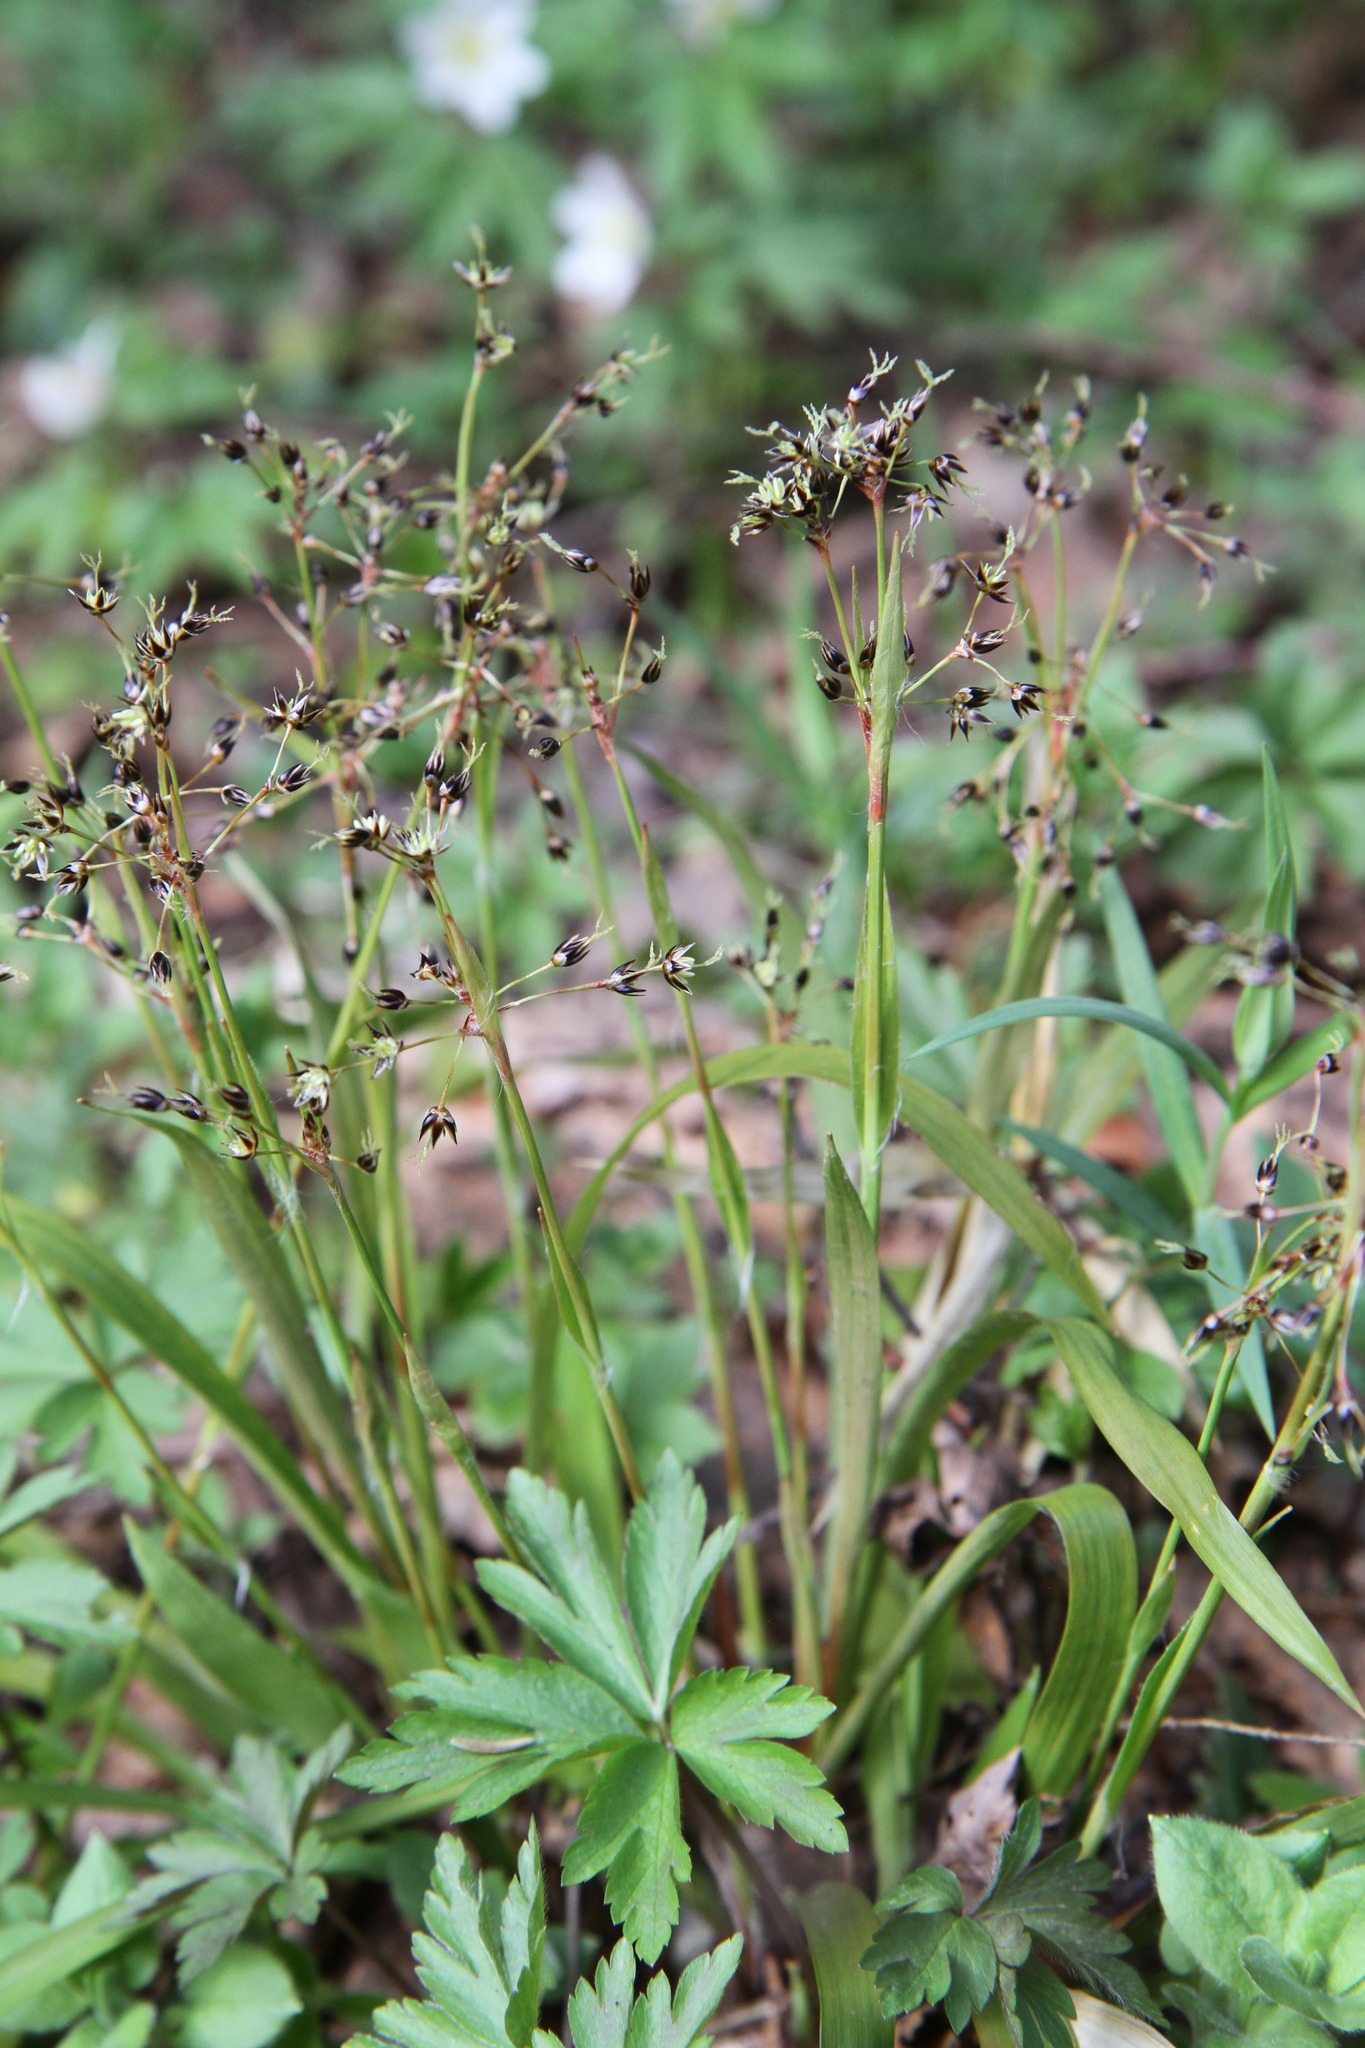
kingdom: Plantae
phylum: Tracheophyta
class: Liliopsida
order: Poales
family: Juncaceae
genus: Luzula
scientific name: Luzula pilosa
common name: Hairy wood-rush
